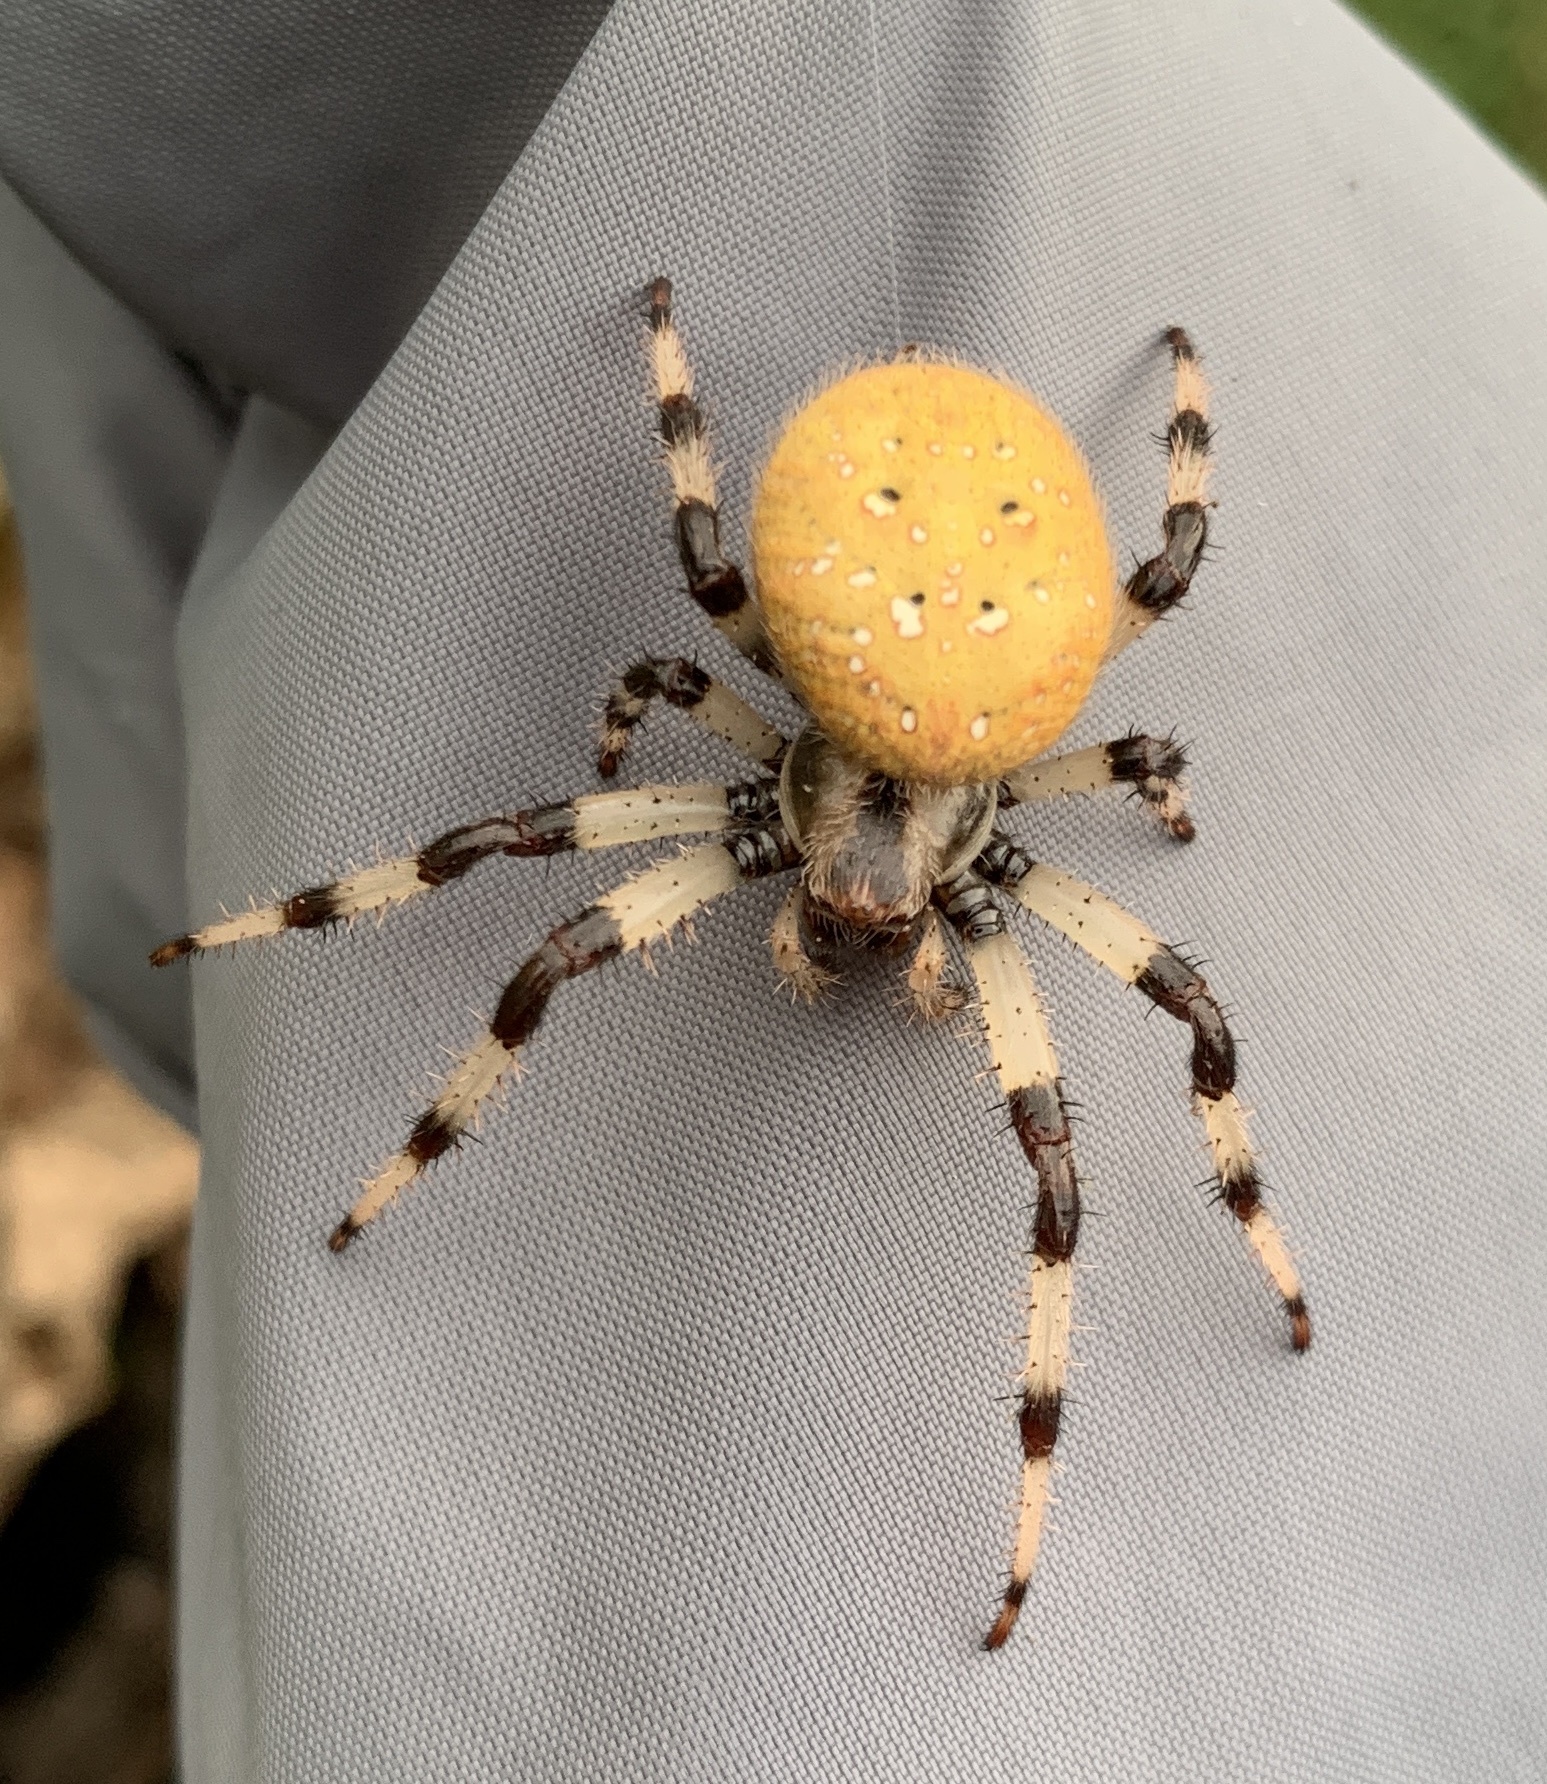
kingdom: Animalia
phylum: Arthropoda
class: Arachnida
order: Araneae
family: Araneidae
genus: Araneus
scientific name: Araneus trifolium
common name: Shamrock orbweaver
